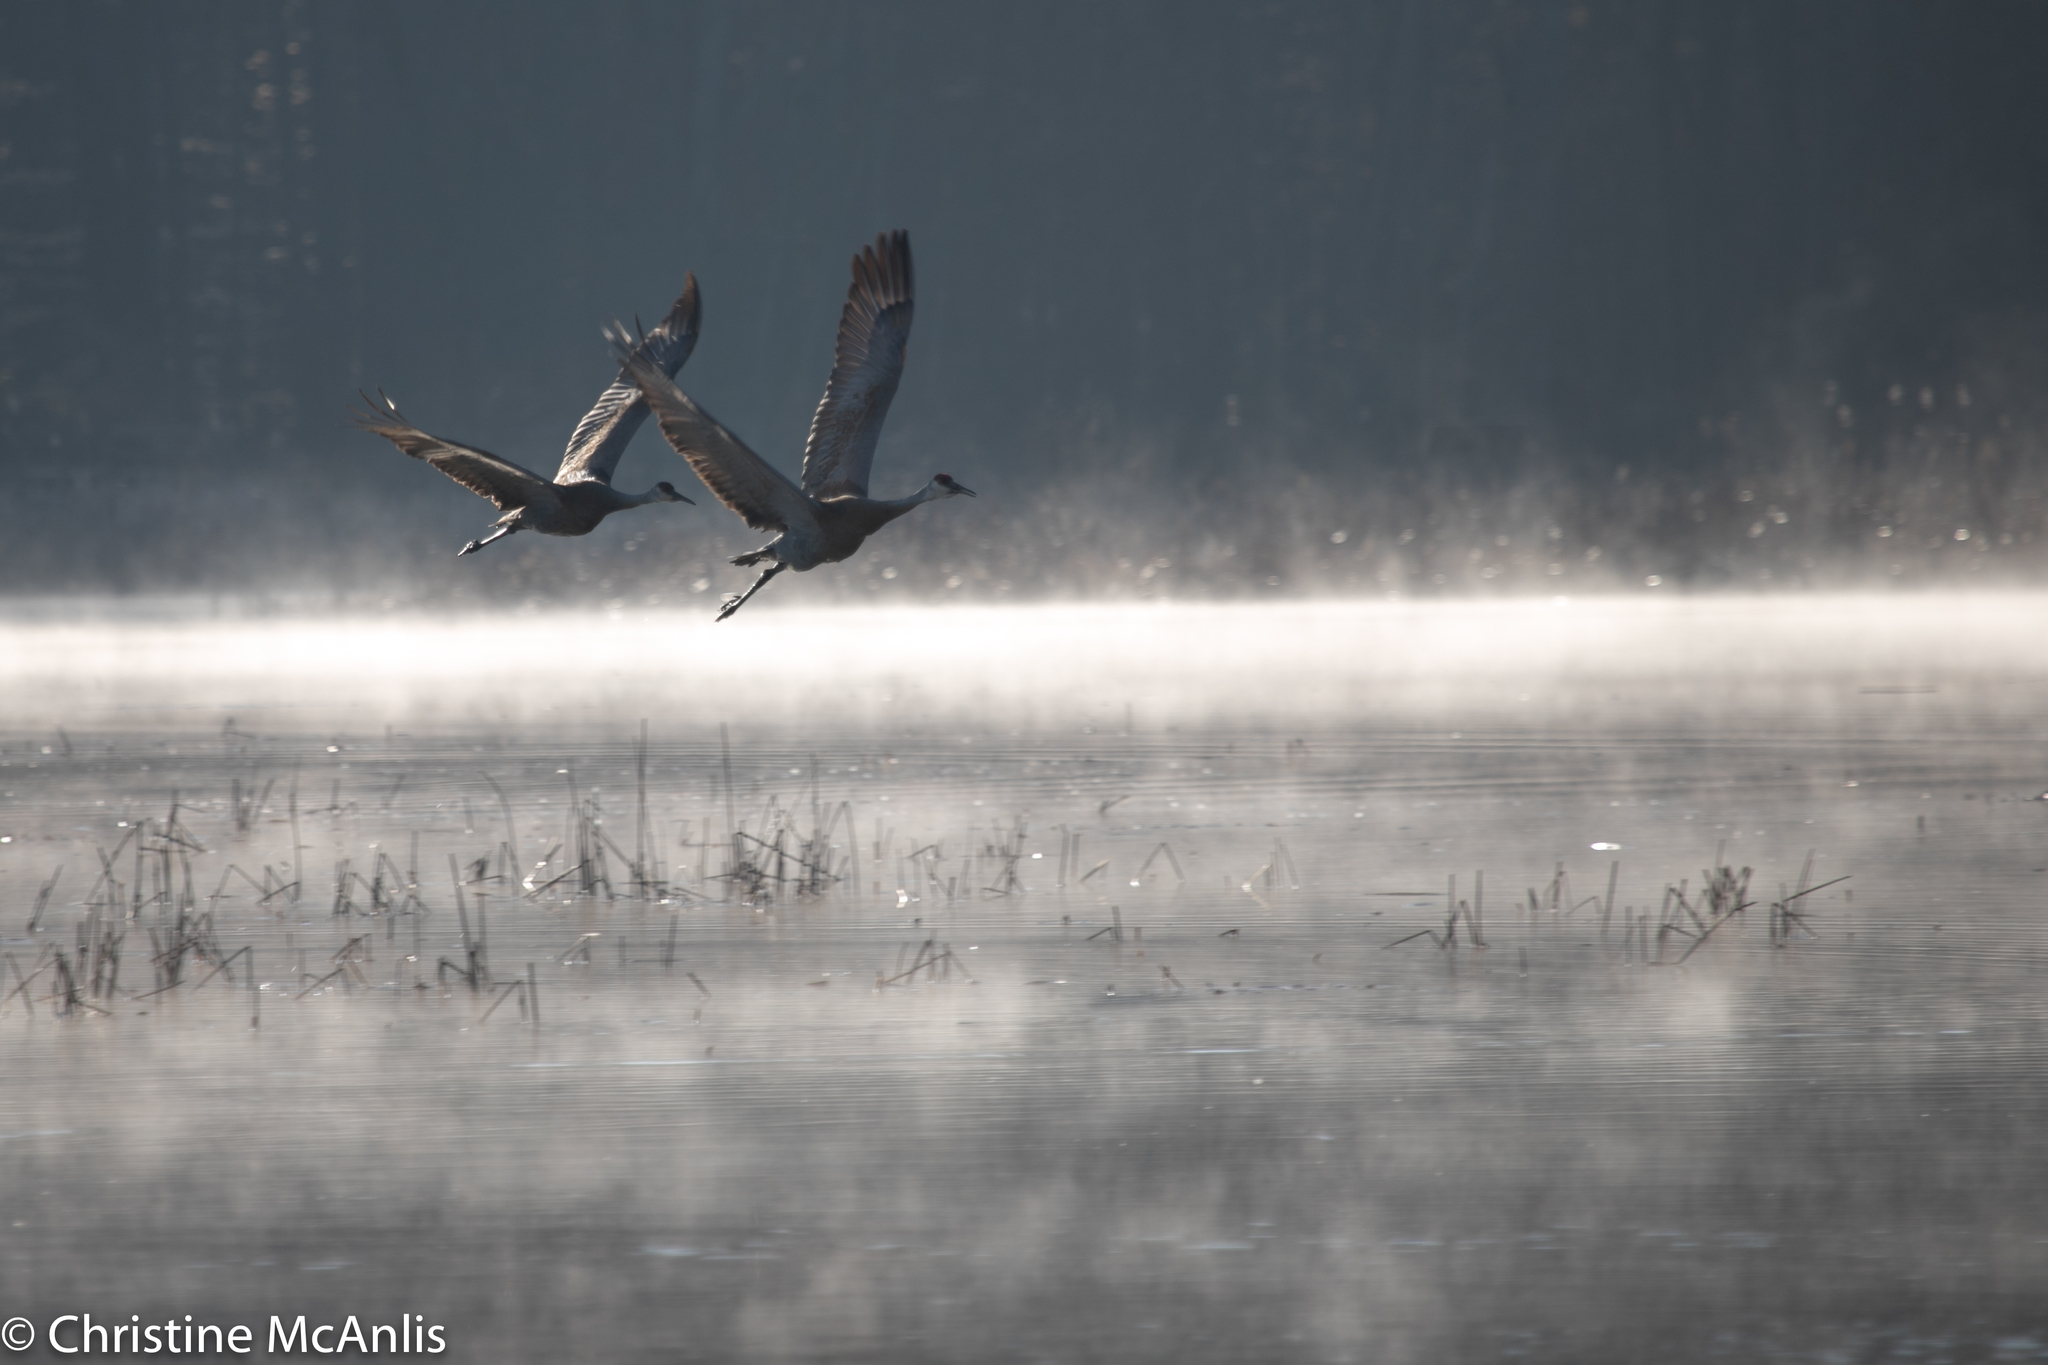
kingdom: Animalia
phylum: Chordata
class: Aves
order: Gruiformes
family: Gruidae
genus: Grus
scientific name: Grus canadensis
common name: Sandhill crane
